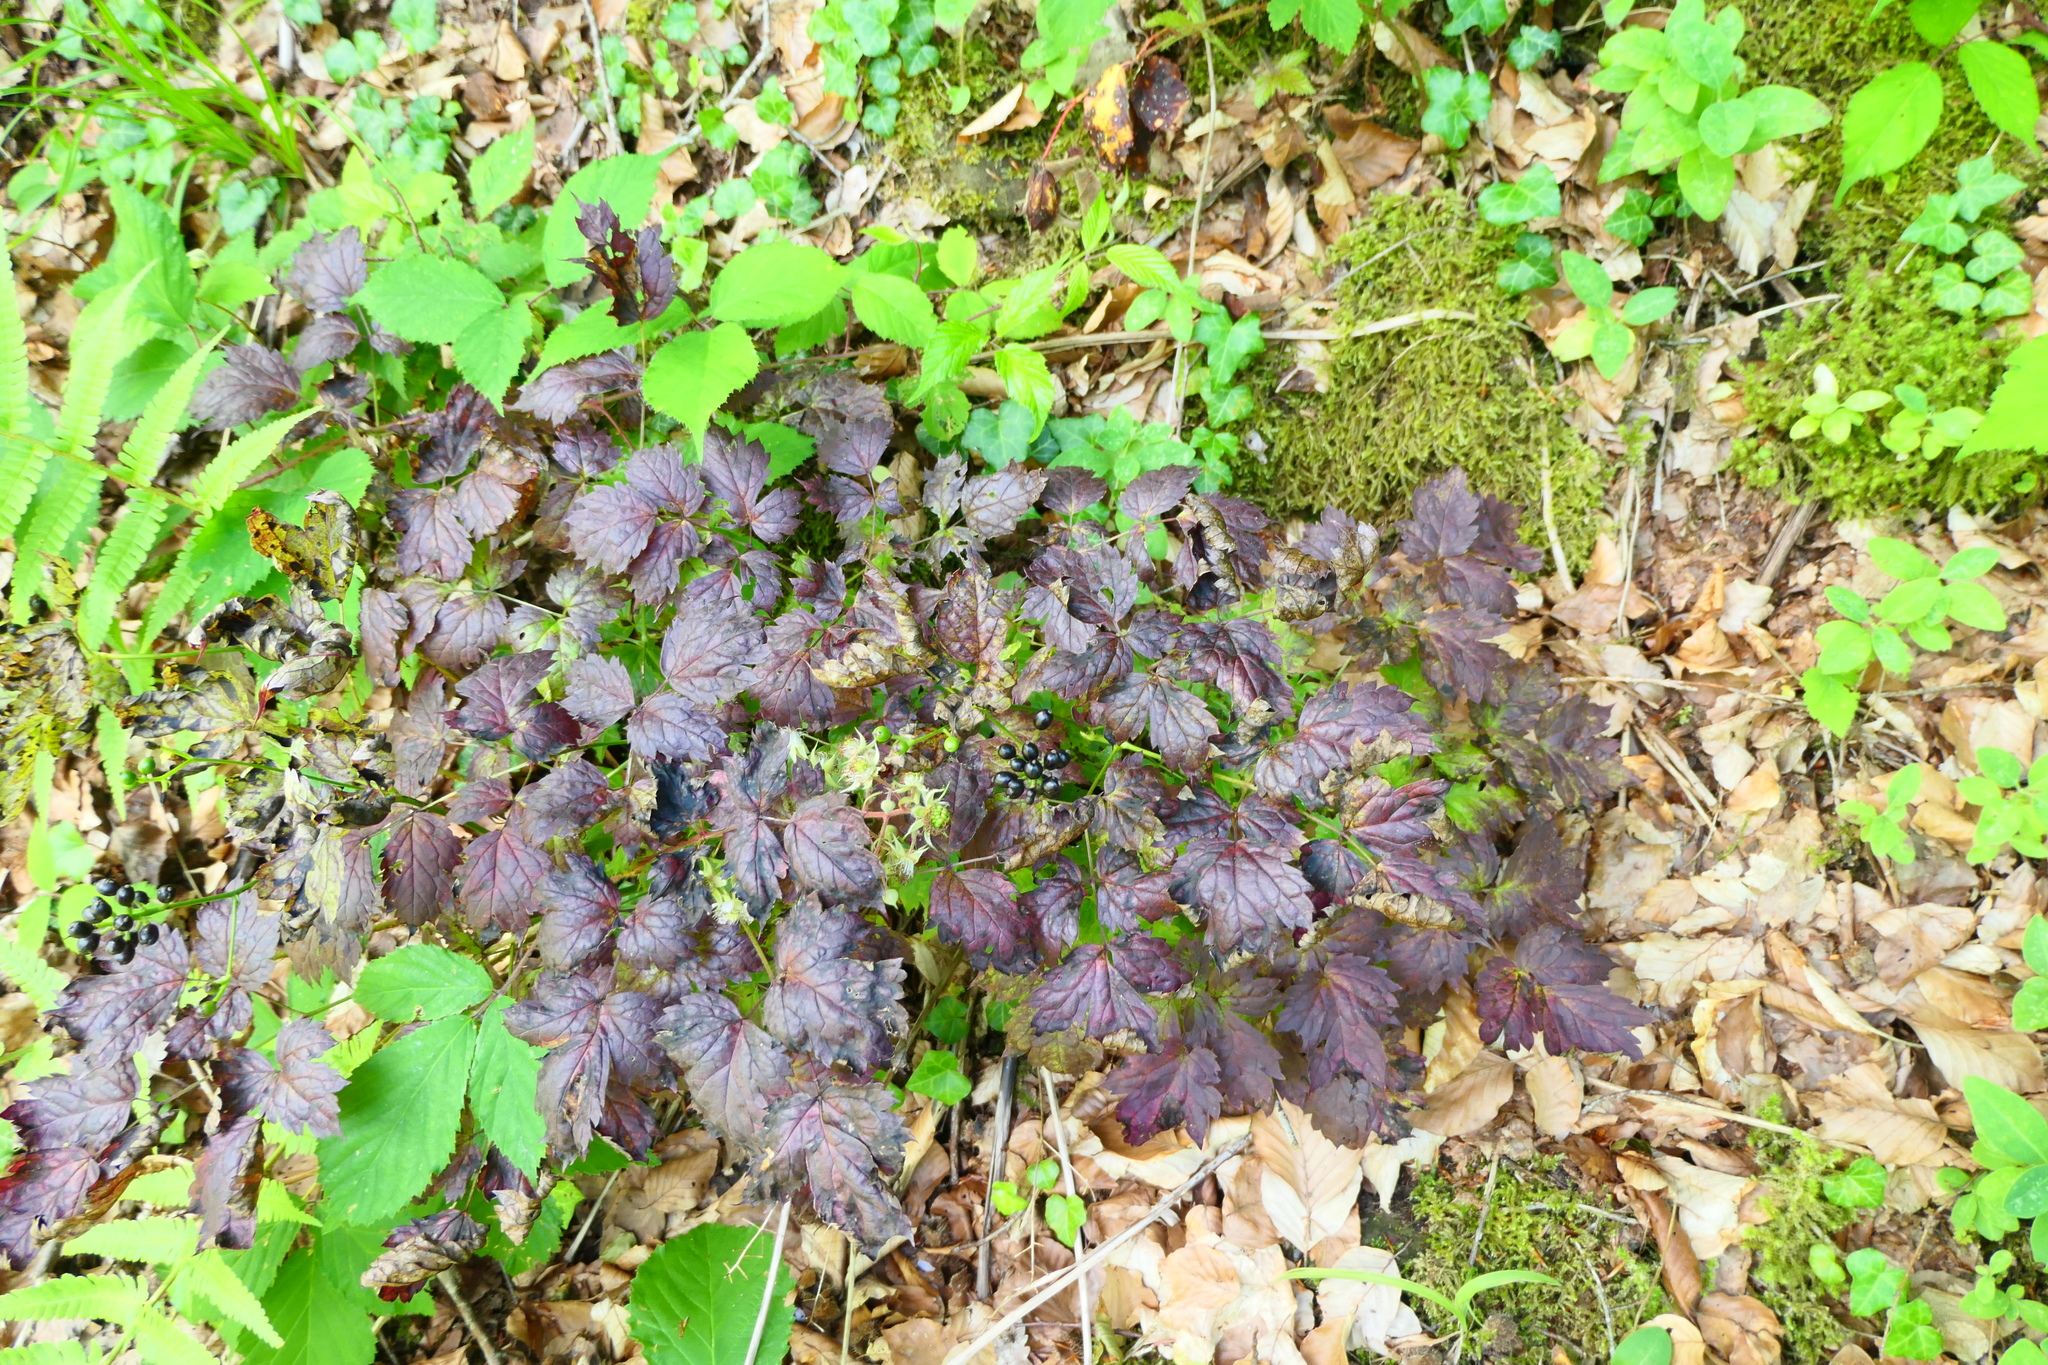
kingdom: Plantae
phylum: Tracheophyta
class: Magnoliopsida
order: Ranunculales
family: Ranunculaceae
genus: Actaea
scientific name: Actaea spicata
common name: Baneberry
